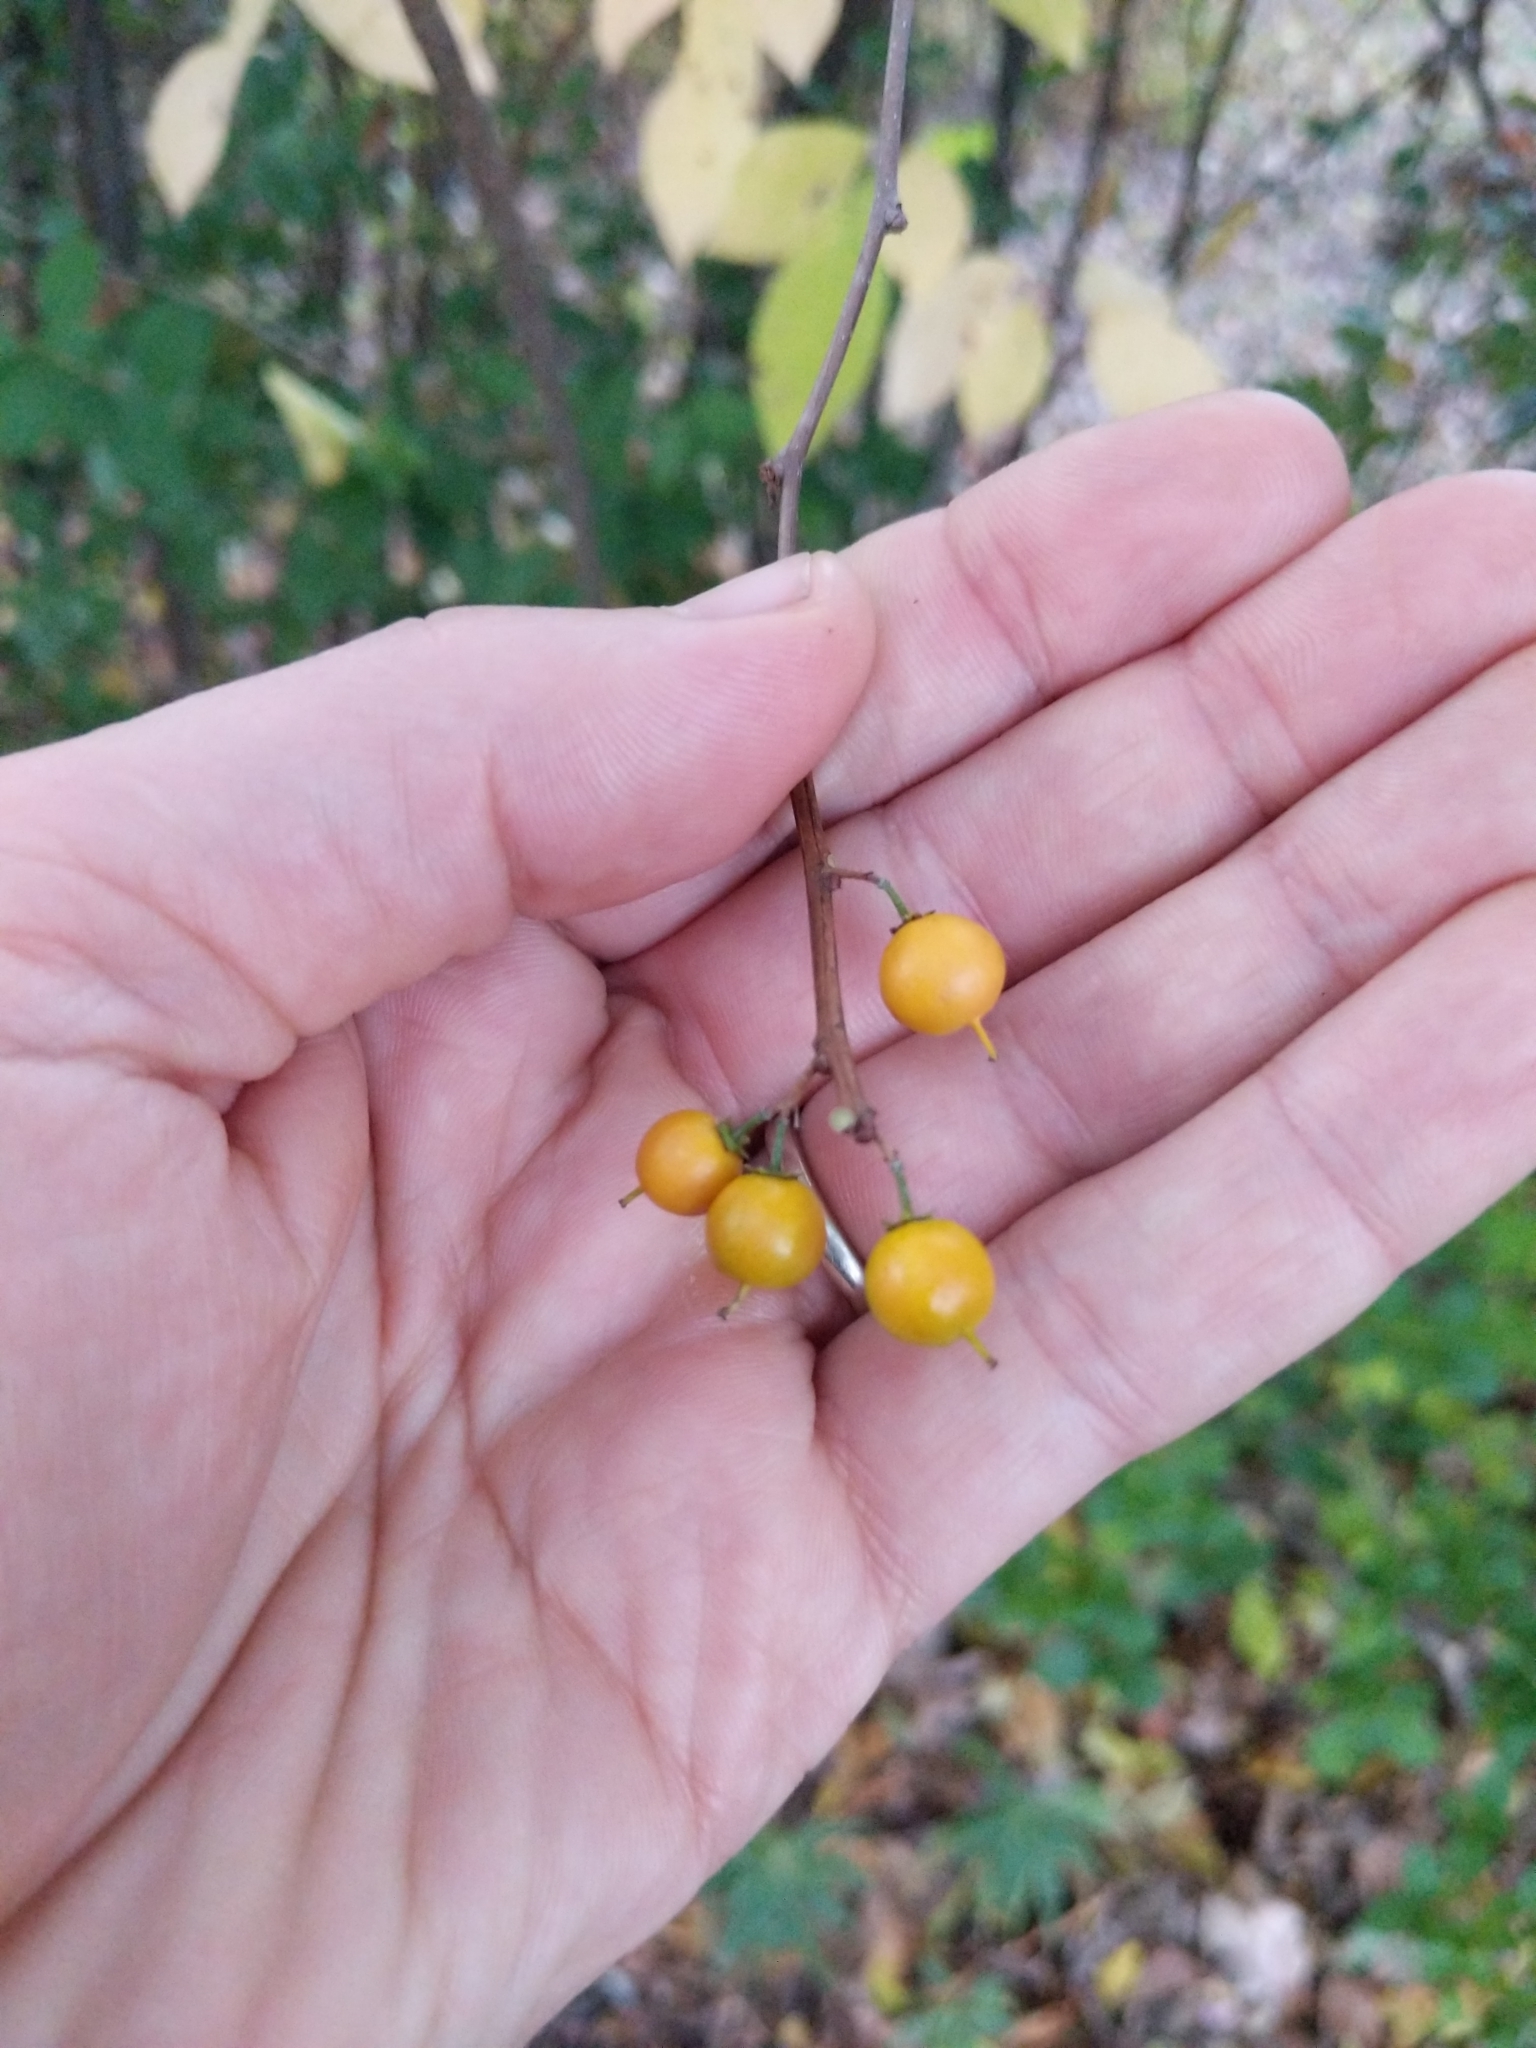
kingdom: Plantae
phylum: Tracheophyta
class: Magnoliopsida
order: Celastrales
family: Celastraceae
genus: Celastrus
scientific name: Celastrus orbiculatus
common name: Oriental bittersweet
